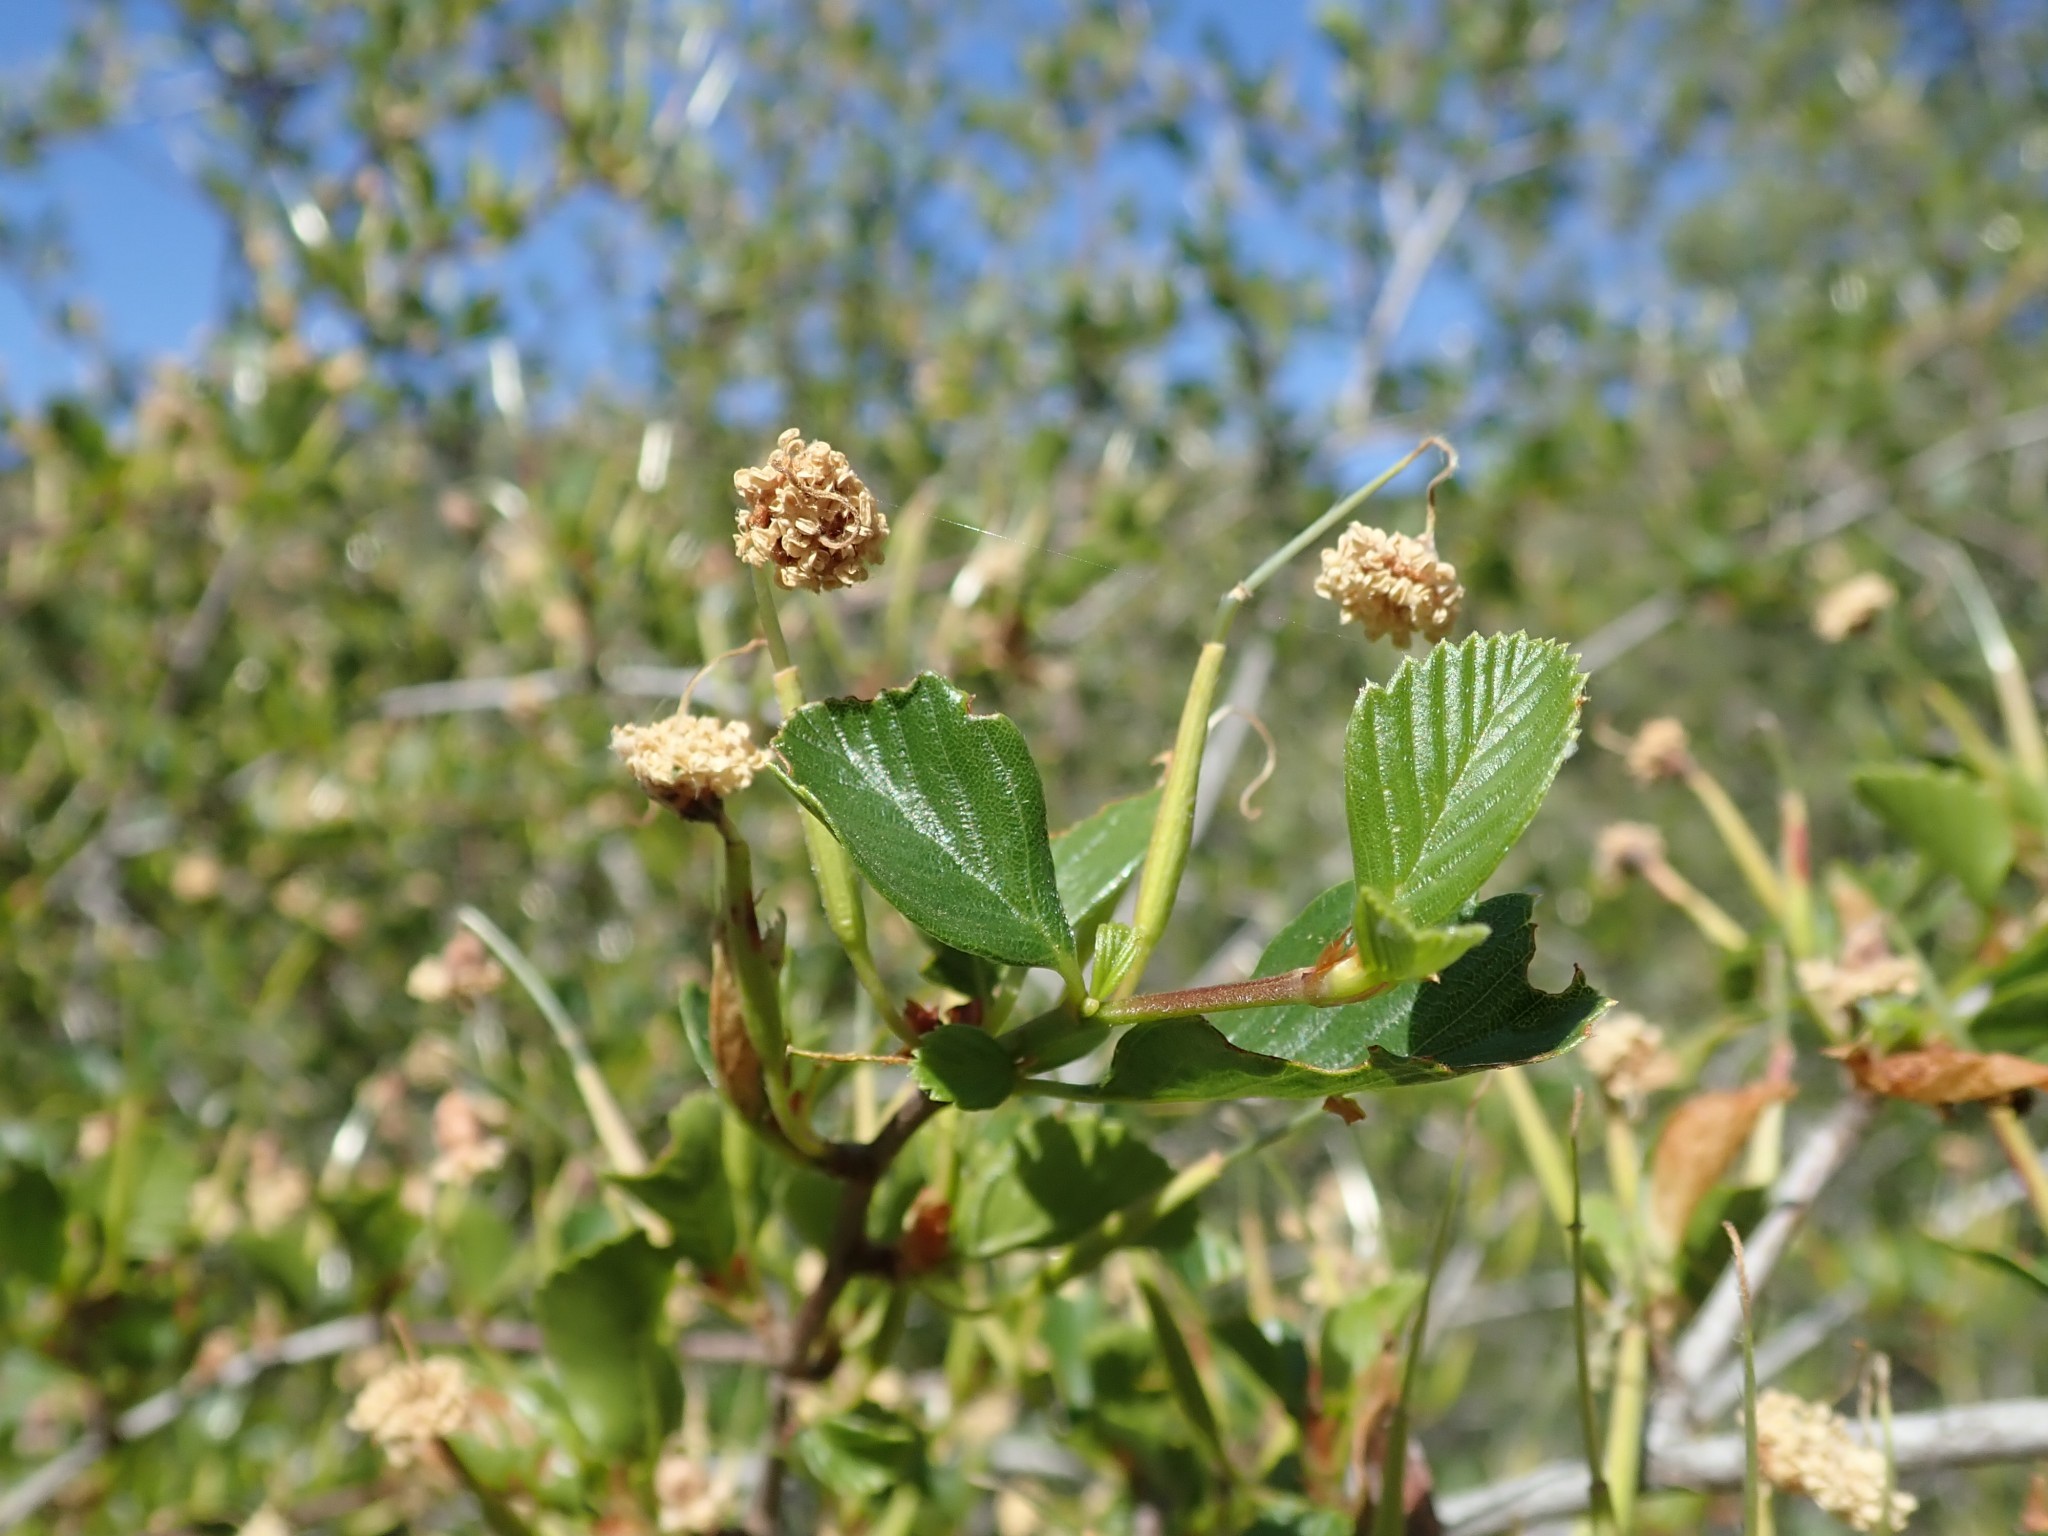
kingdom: Plantae
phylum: Tracheophyta
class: Magnoliopsida
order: Rosales
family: Rosaceae
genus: Cercocarpus
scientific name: Cercocarpus betuloides
